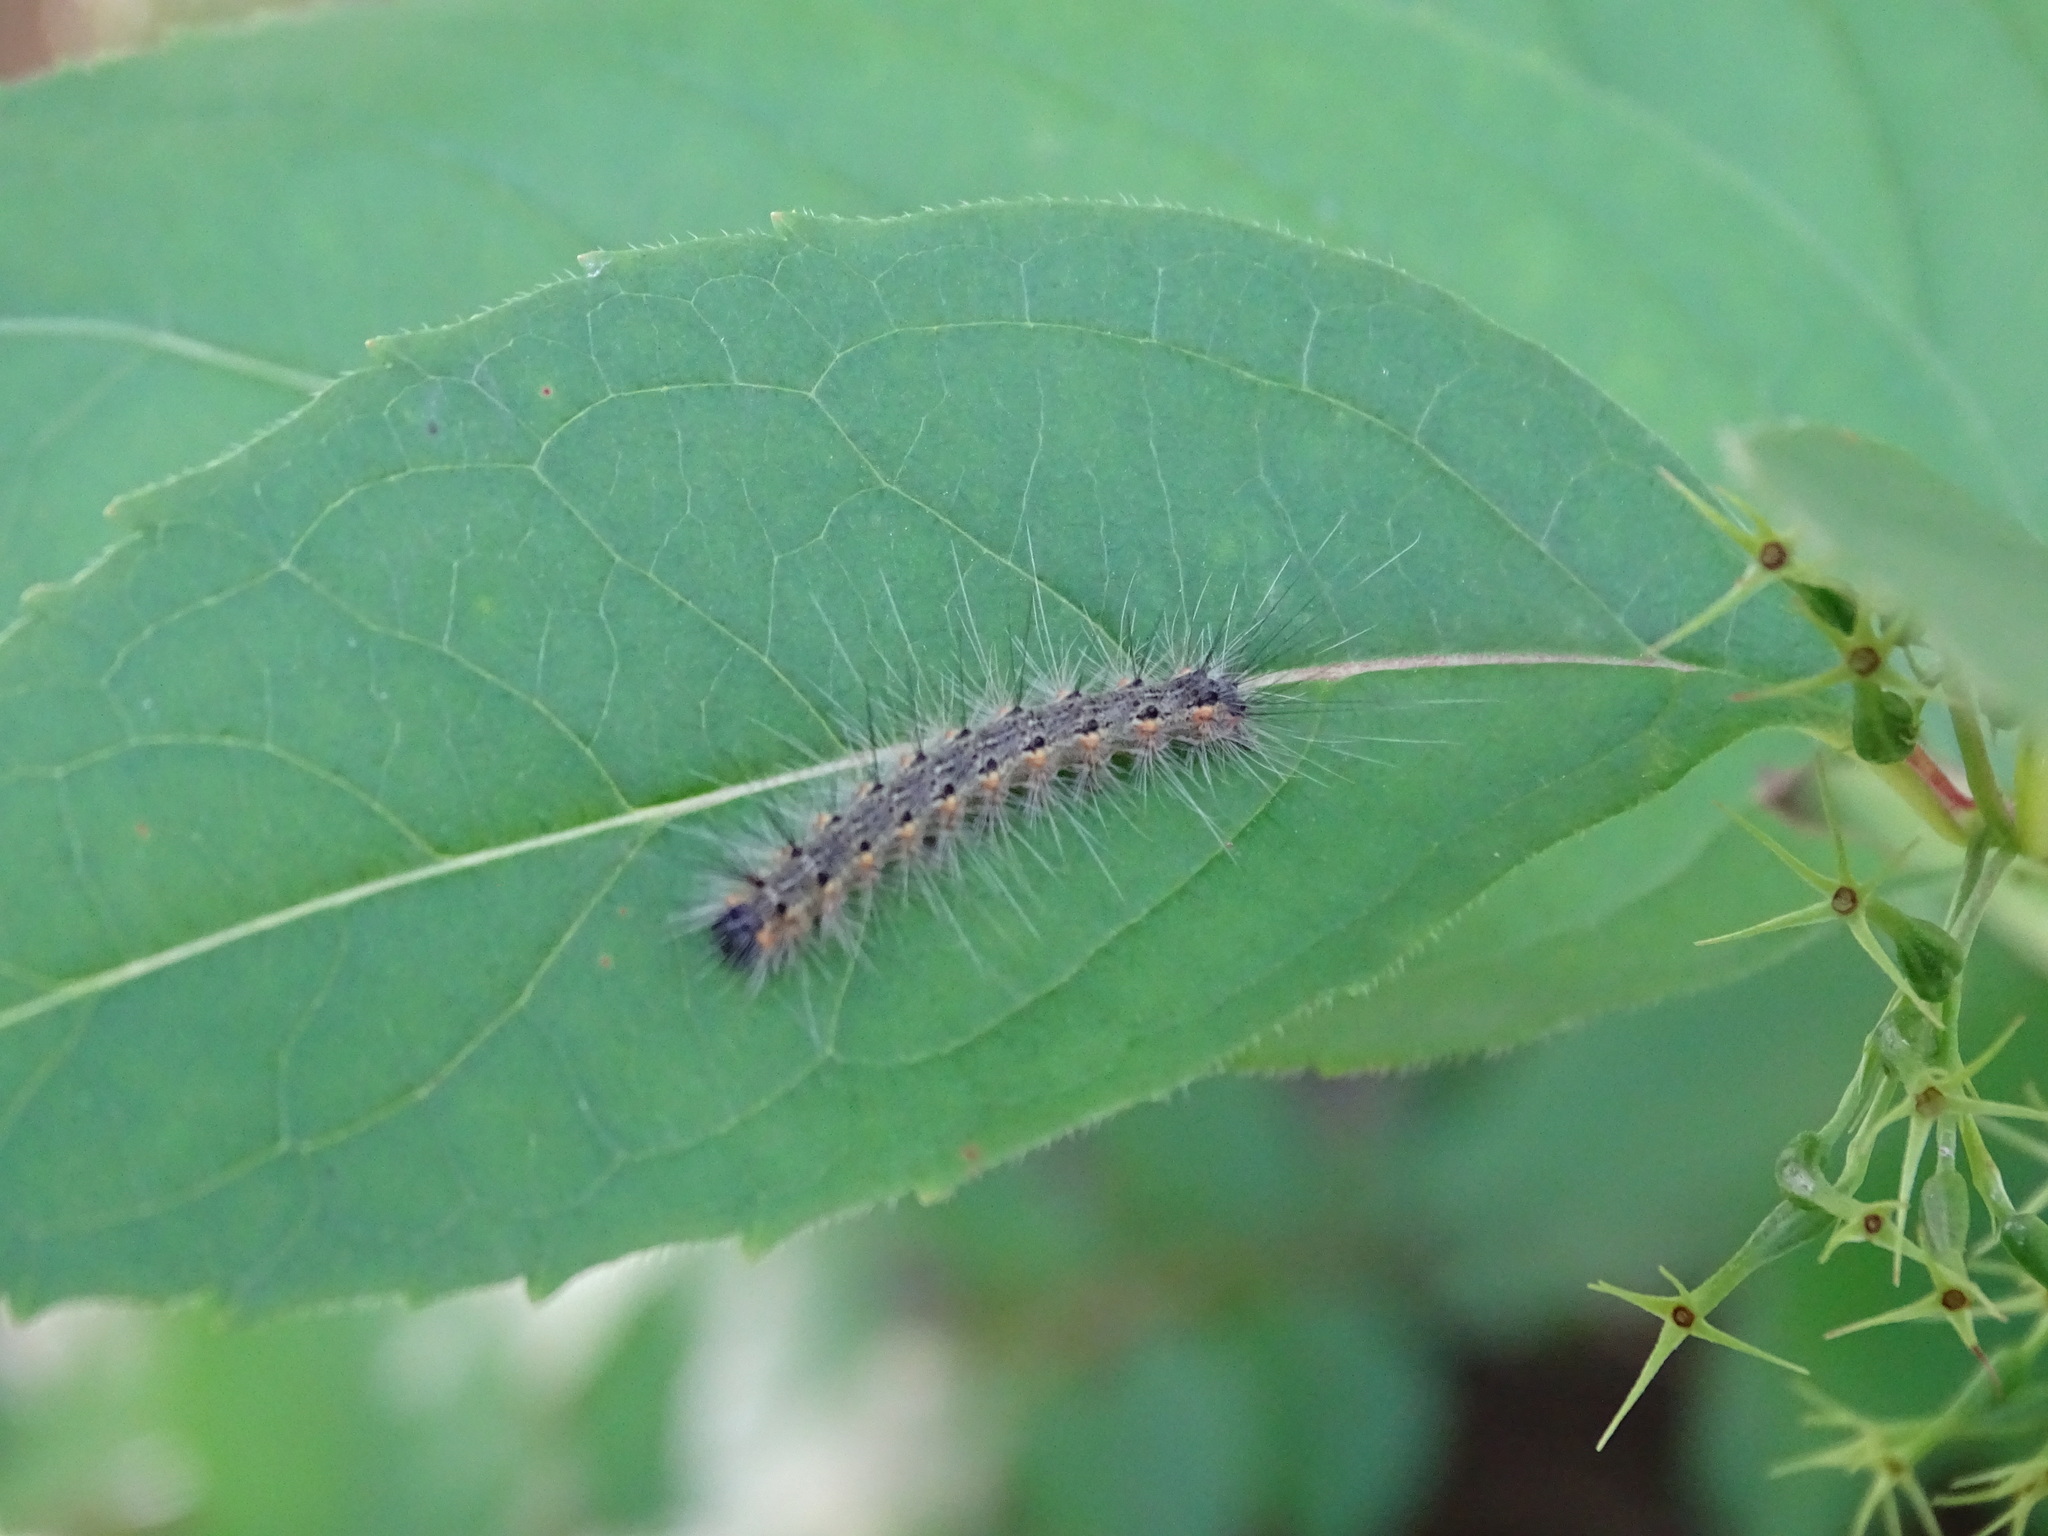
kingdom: Animalia
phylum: Arthropoda
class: Insecta
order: Lepidoptera
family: Erebidae
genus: Hyphantria
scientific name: Hyphantria cunea
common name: American white moth
